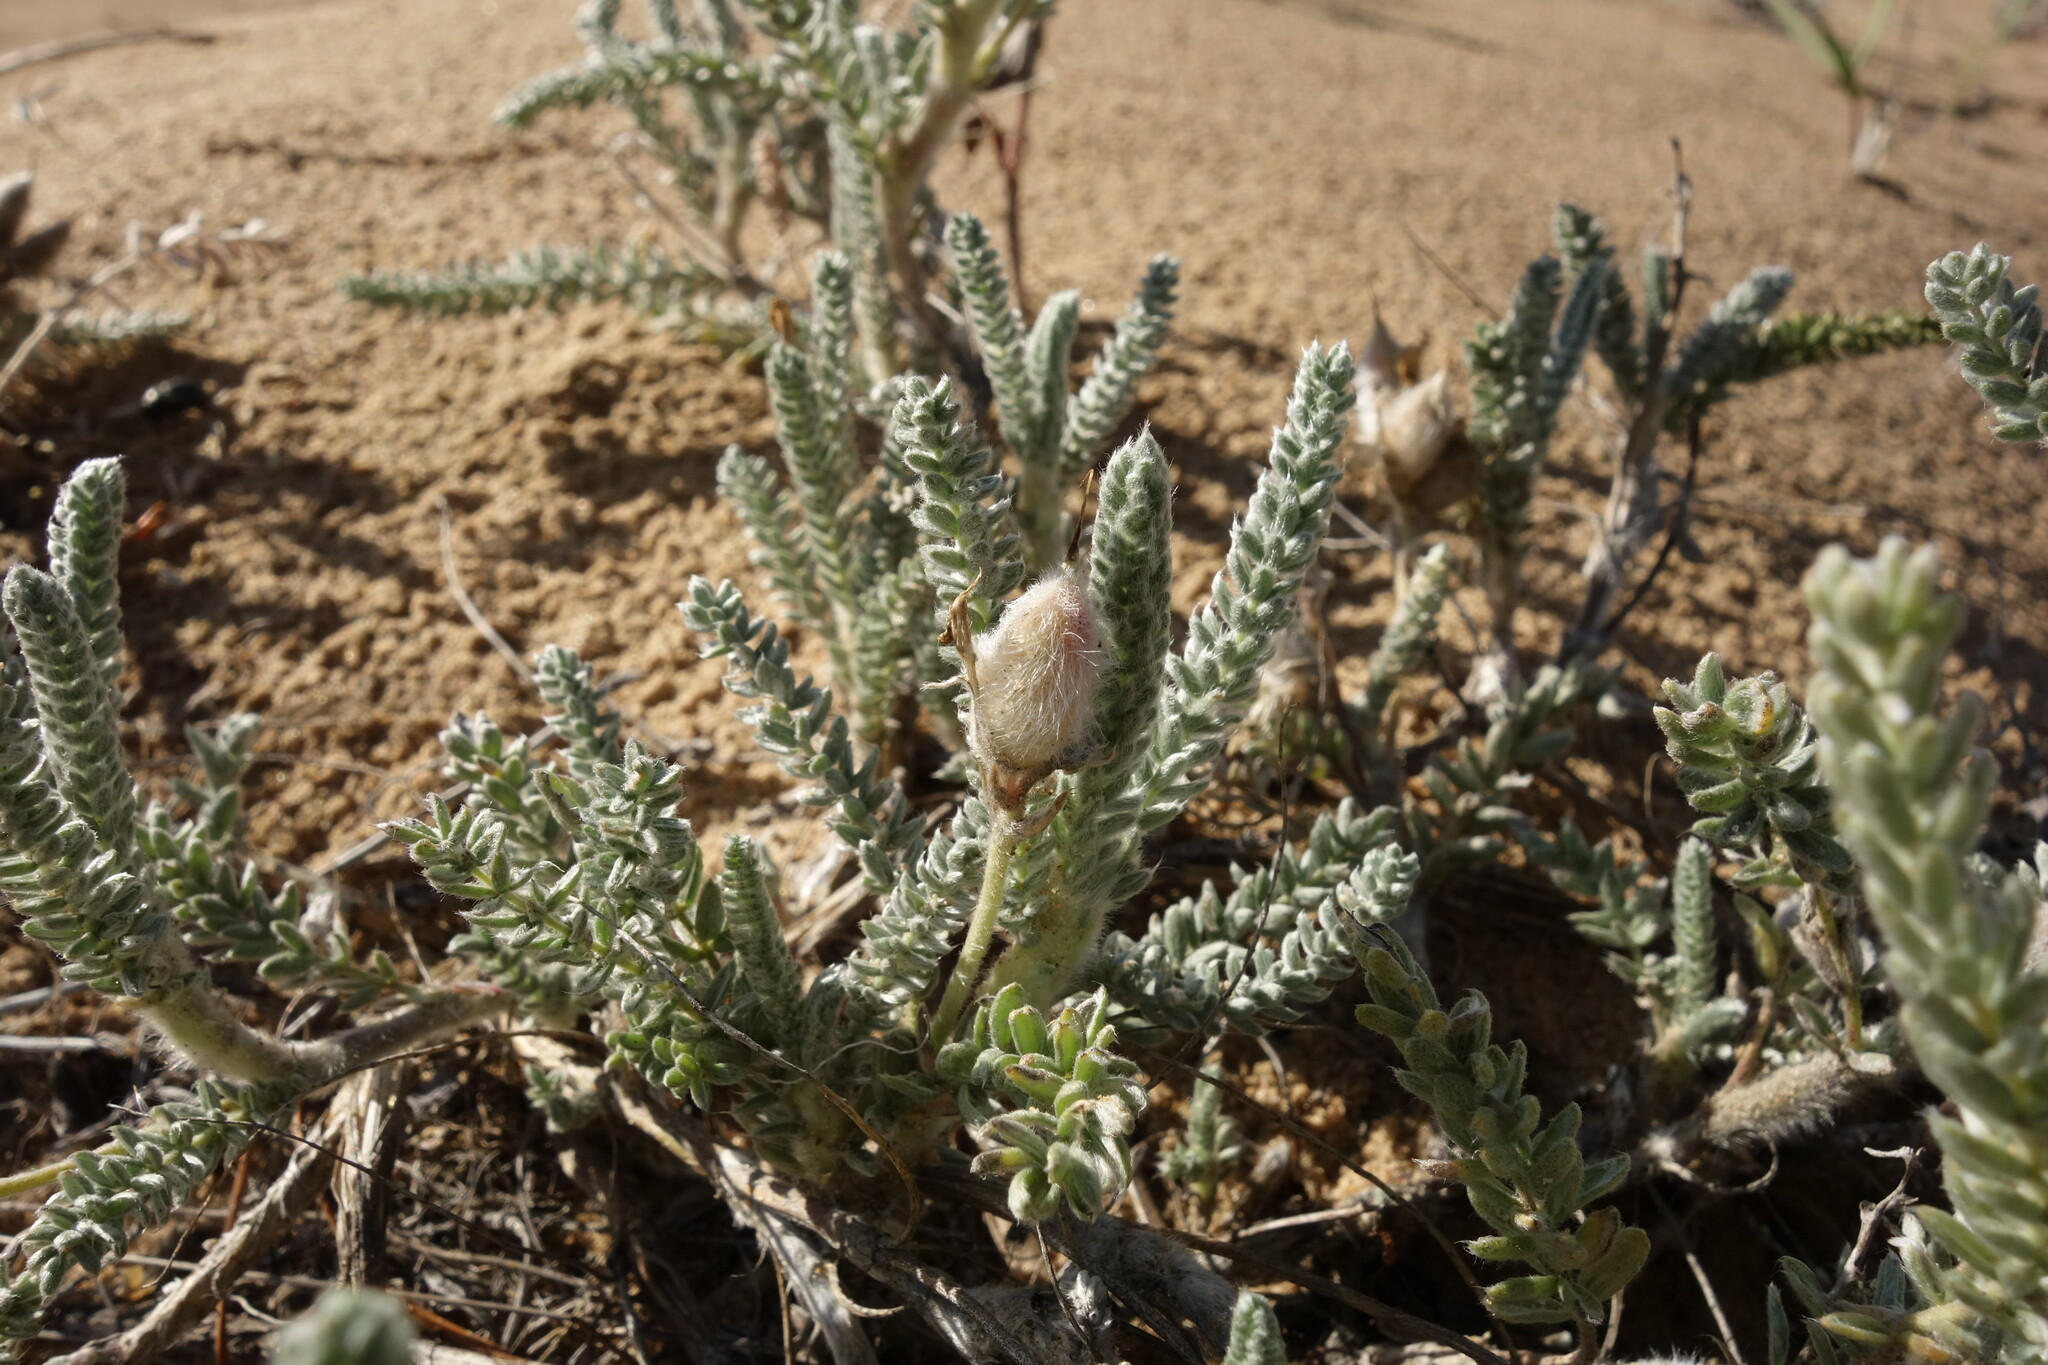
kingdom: Plantae
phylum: Tracheophyta
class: Magnoliopsida
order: Fabales
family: Fabaceae
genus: Oxytropis
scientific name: Oxytropis lanata
